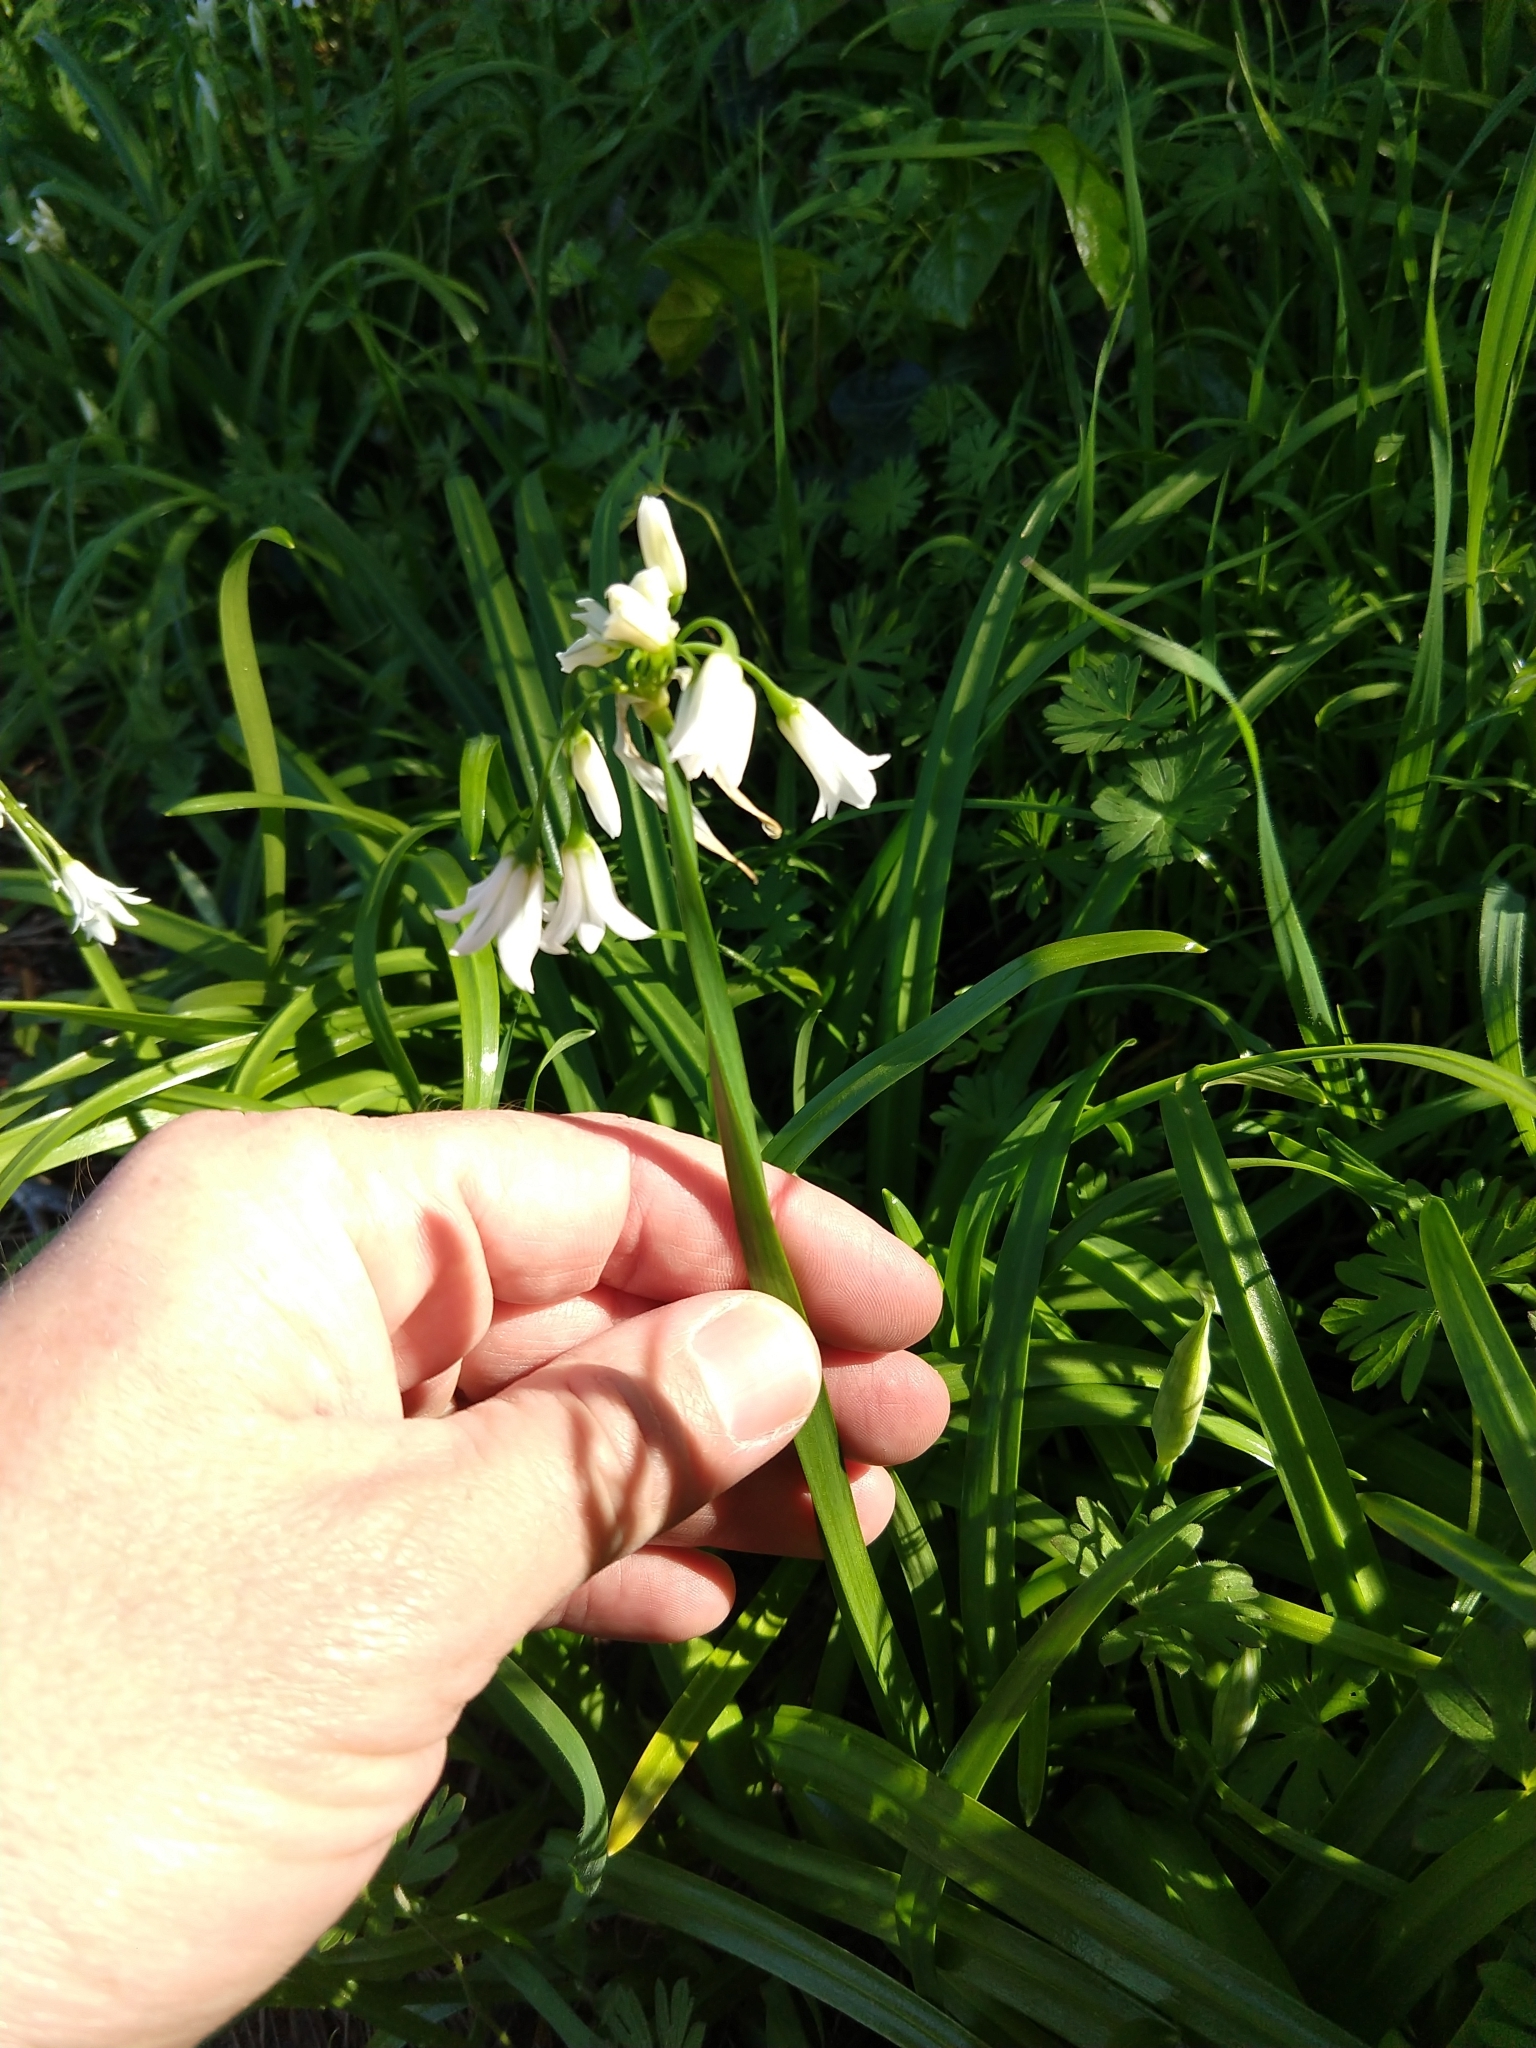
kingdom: Plantae
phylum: Tracheophyta
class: Liliopsida
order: Asparagales
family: Amaryllidaceae
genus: Allium
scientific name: Allium triquetrum
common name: Three-cornered garlic
